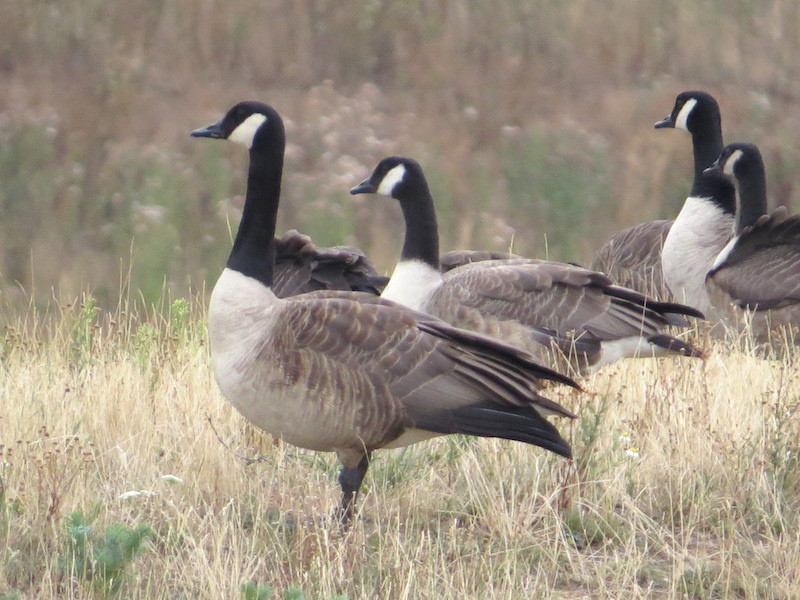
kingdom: Animalia
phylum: Chordata
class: Aves
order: Anseriformes
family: Anatidae
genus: Branta
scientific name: Branta canadensis
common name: Canada goose
